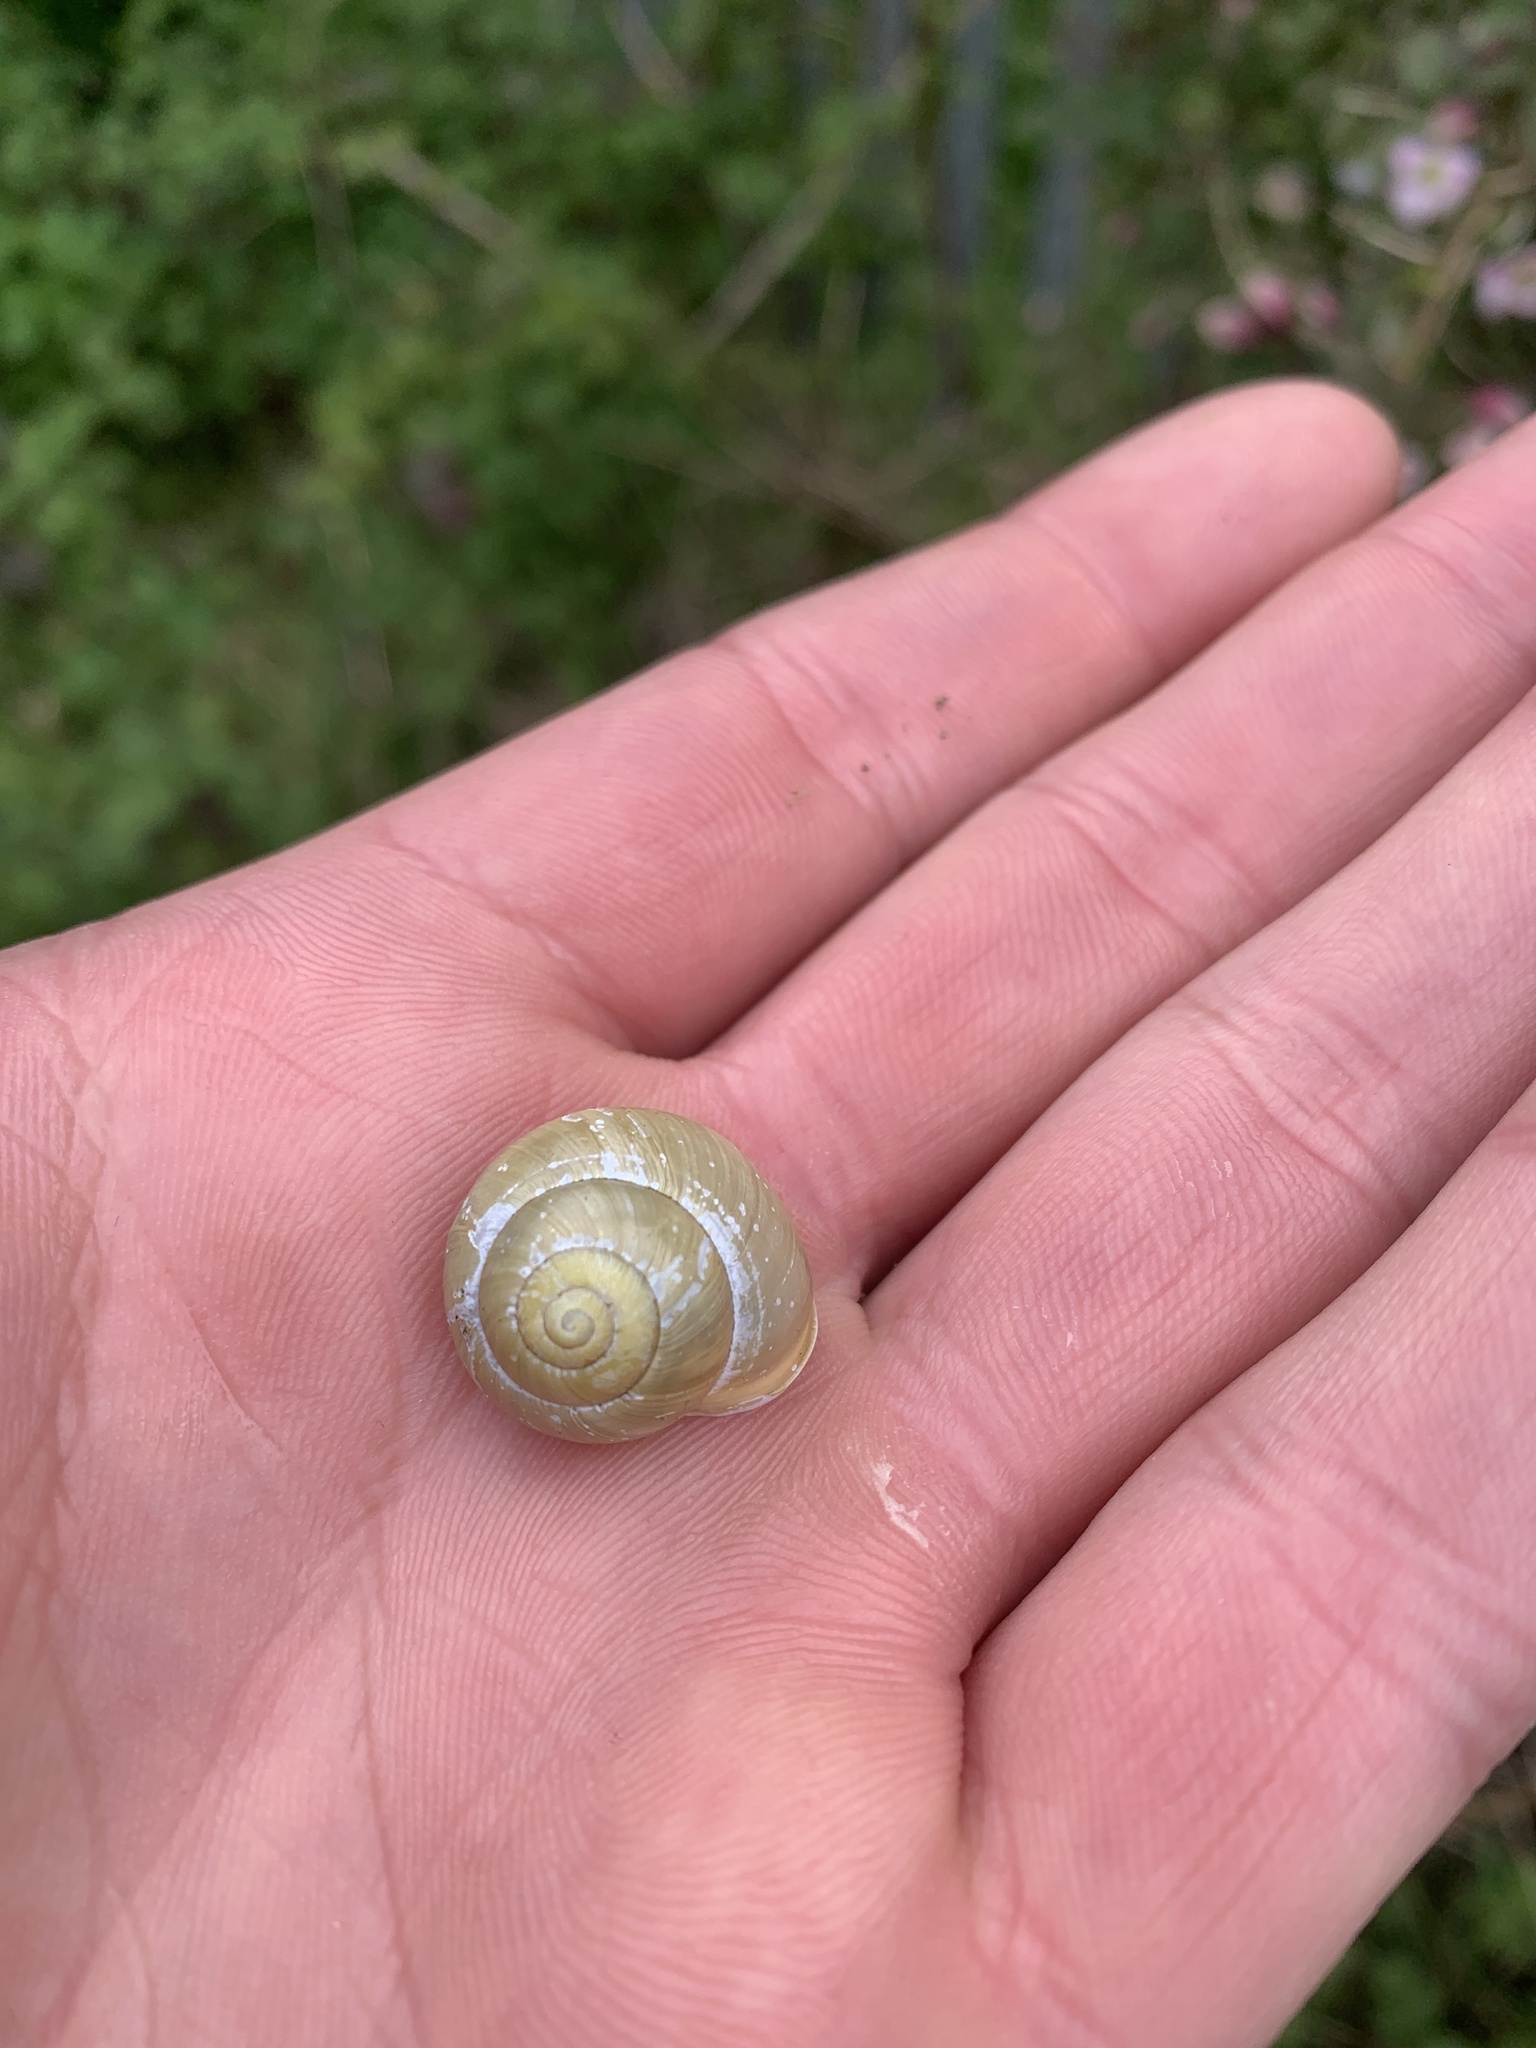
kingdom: Animalia
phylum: Mollusca
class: Gastropoda
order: Stylommatophora
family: Helicidae
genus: Cepaea
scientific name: Cepaea hortensis
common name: White-lip gardensnail
